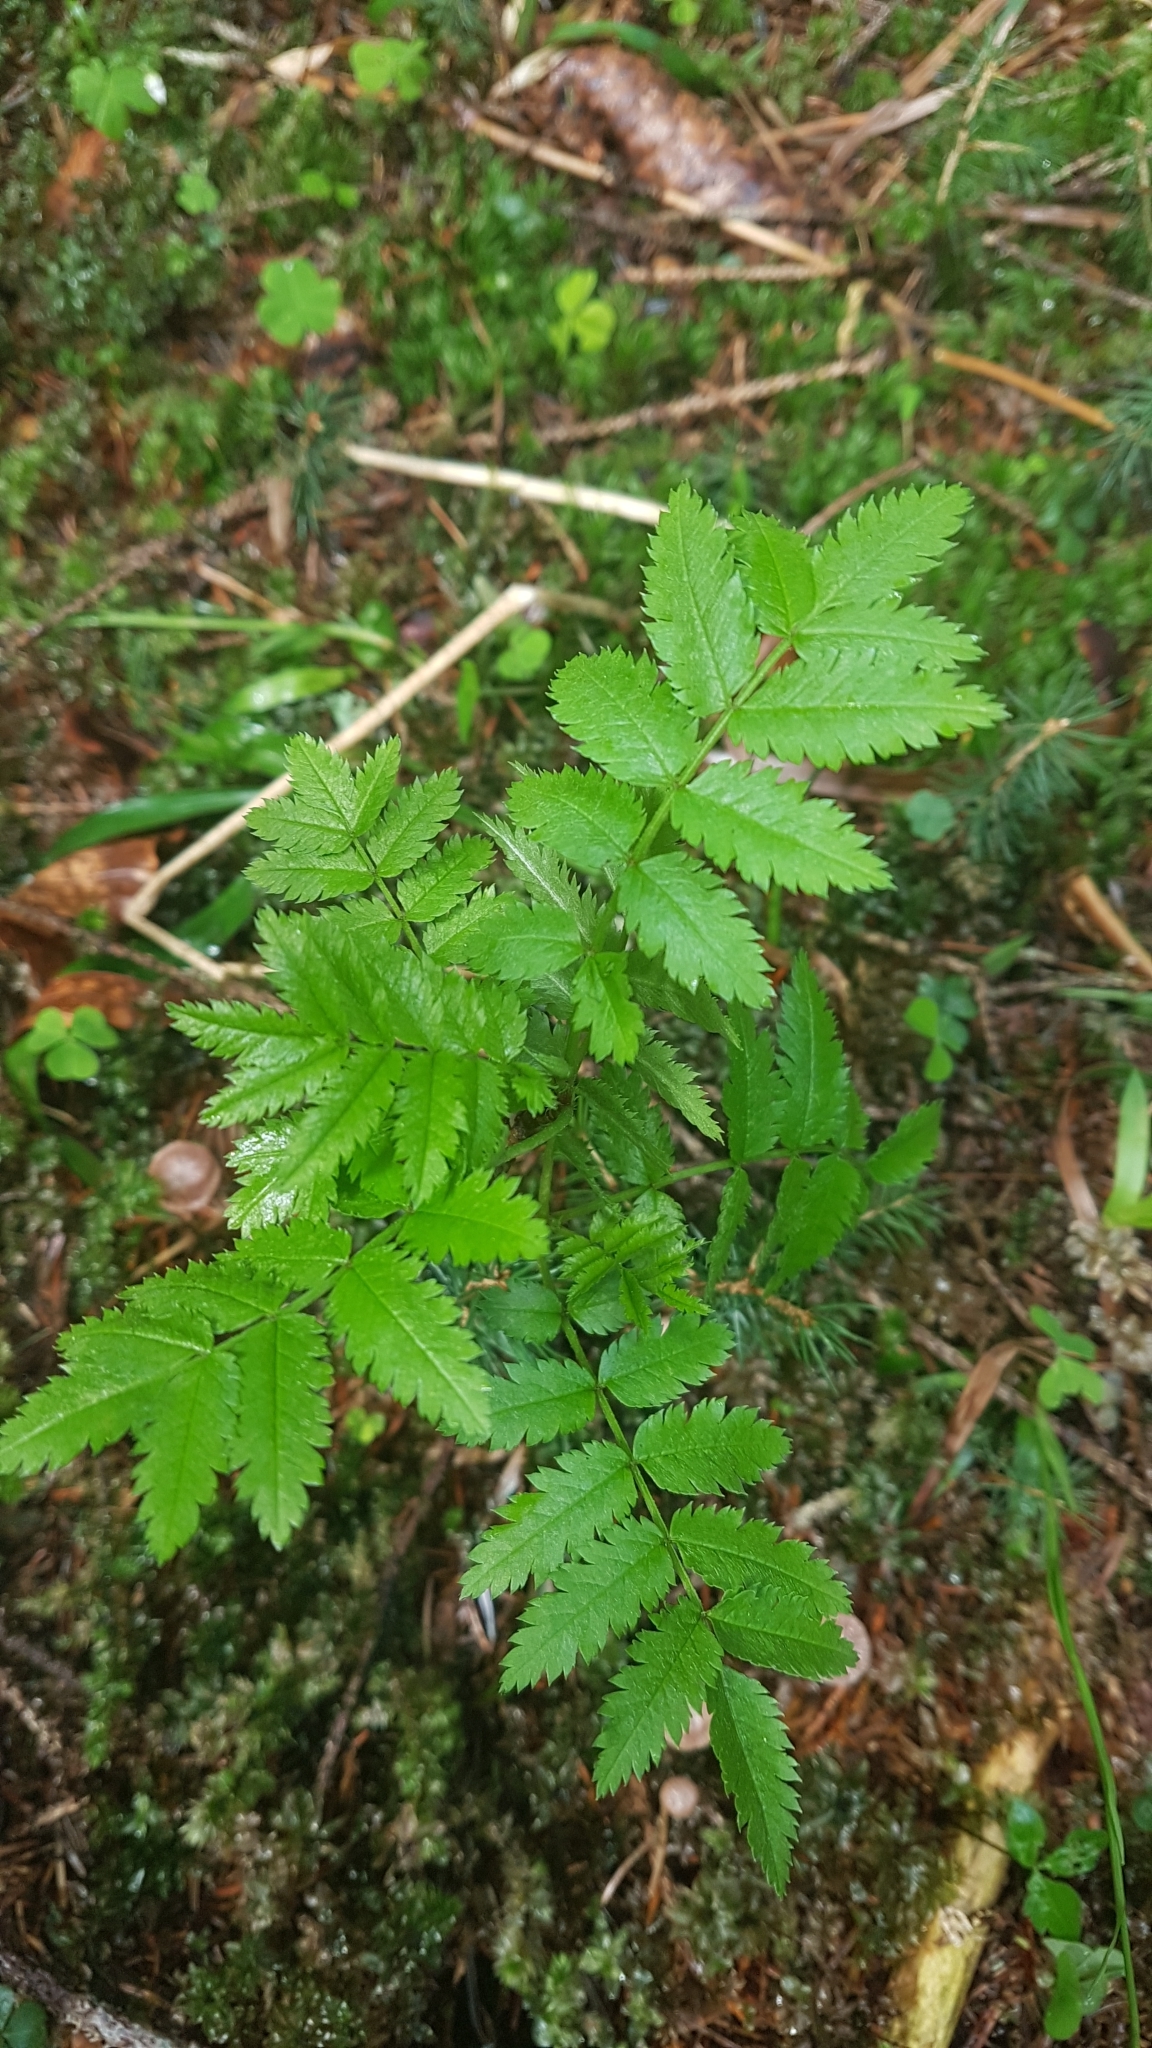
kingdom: Plantae
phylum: Tracheophyta
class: Magnoliopsida
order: Rosales
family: Rosaceae
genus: Sorbus
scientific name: Sorbus aucuparia
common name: Rowan
